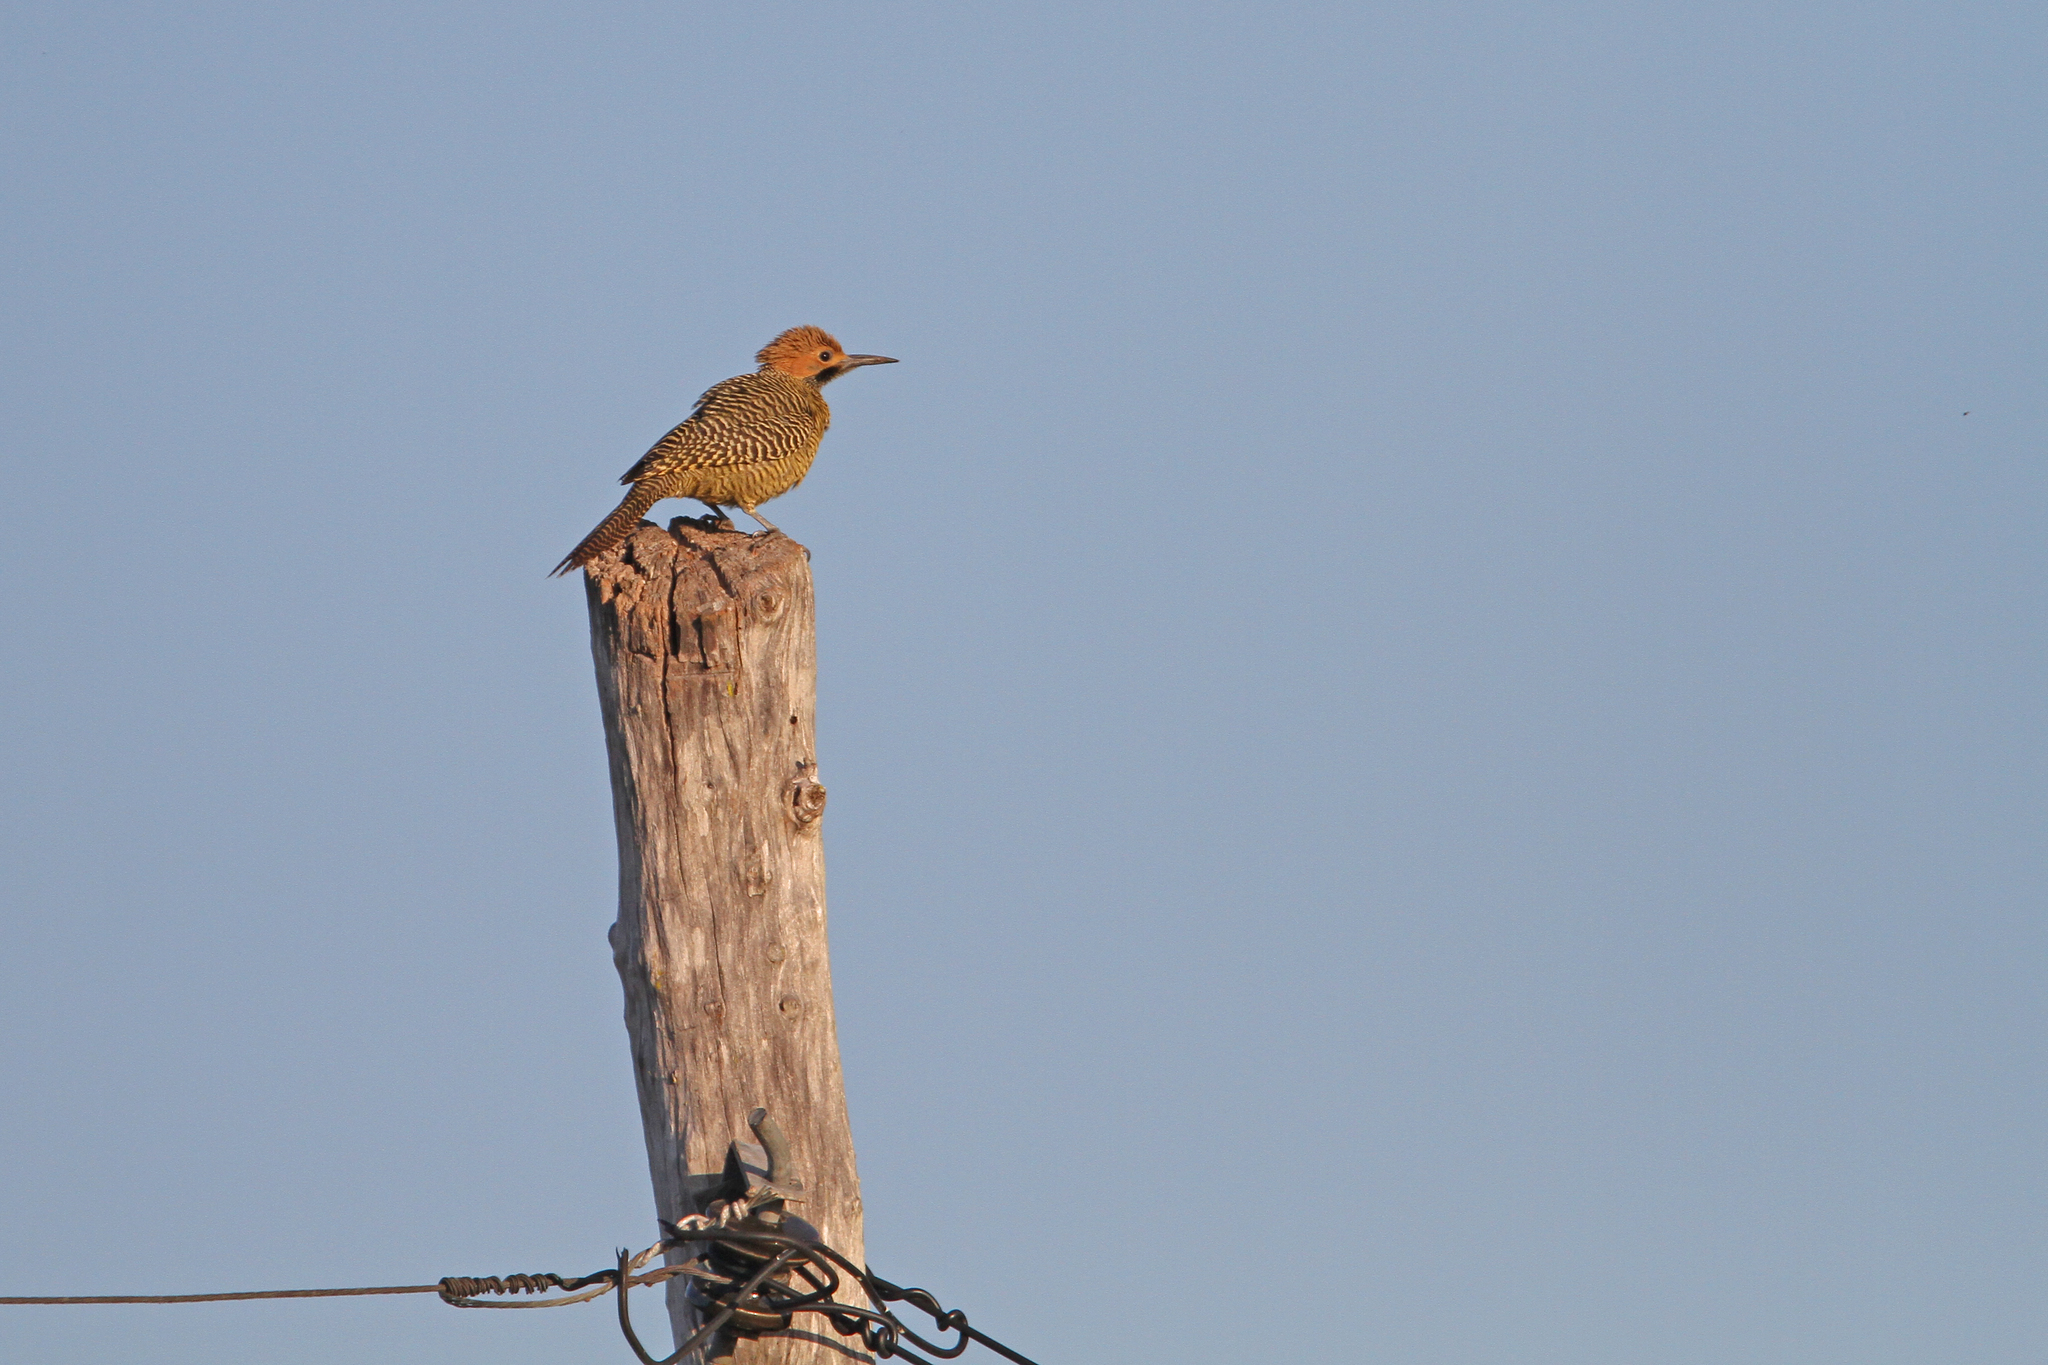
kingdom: Animalia
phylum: Chordata
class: Aves
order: Piciformes
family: Picidae
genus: Colaptes
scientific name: Colaptes fernandinae
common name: Fernandina's flicker
